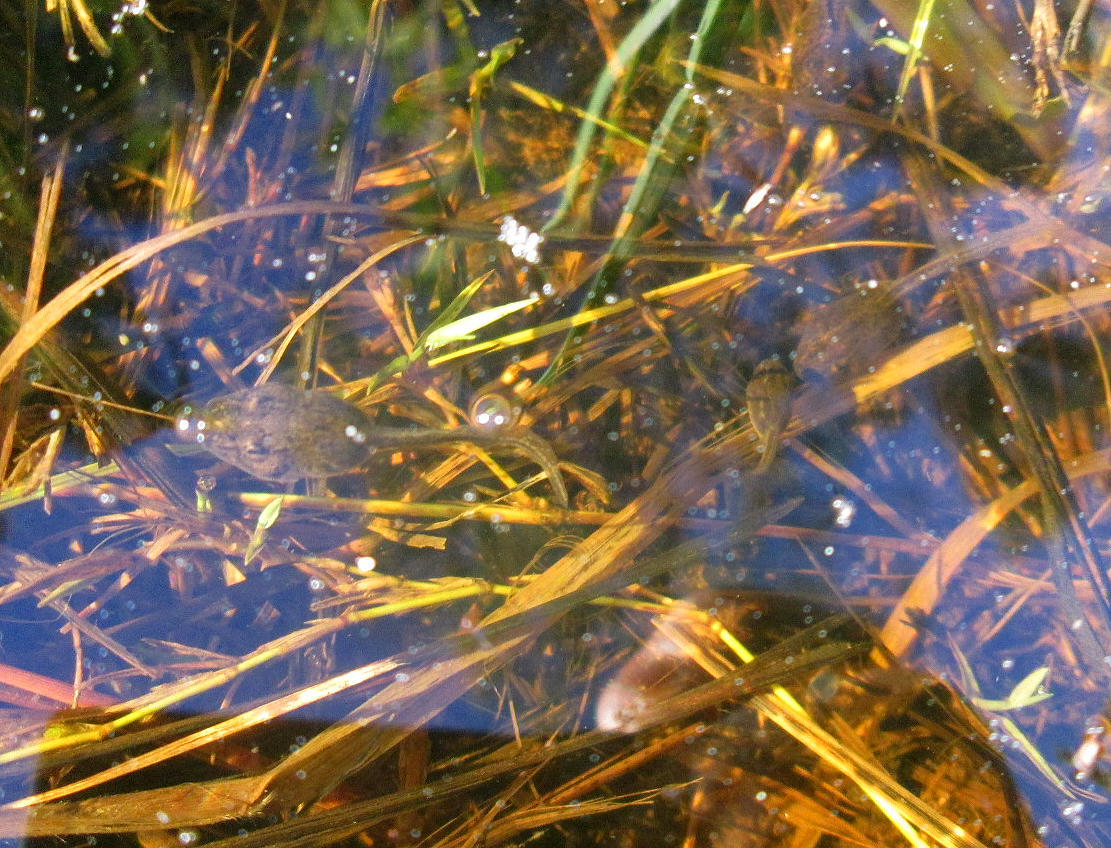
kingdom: Animalia
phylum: Chordata
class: Amphibia
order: Anura
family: Pyxicephalidae
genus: Strongylopus
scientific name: Strongylopus grayii
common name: Gray's stream frog
